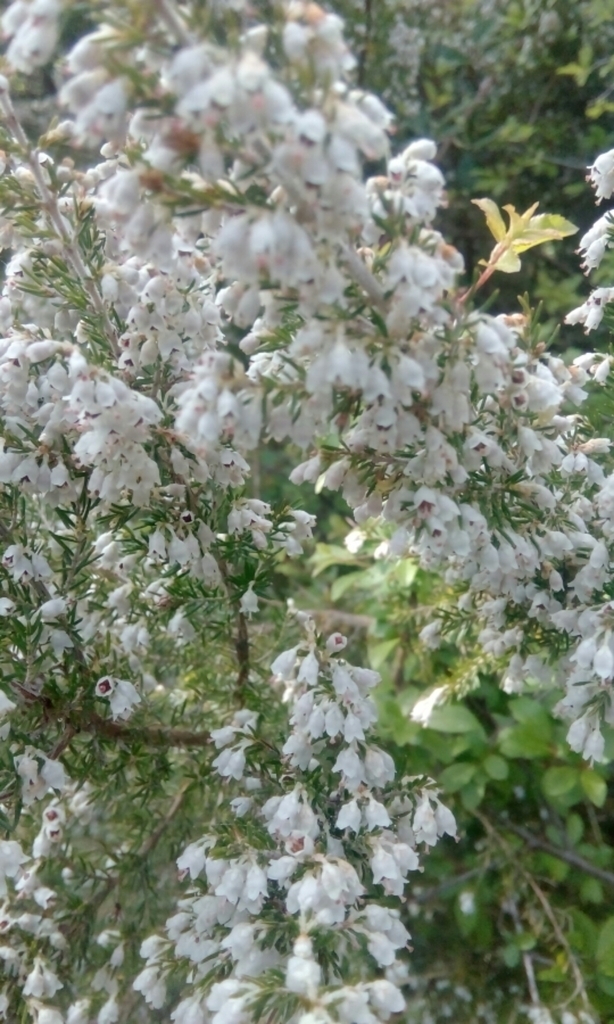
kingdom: Plantae
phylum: Tracheophyta
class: Magnoliopsida
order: Ericales
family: Ericaceae
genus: Erica
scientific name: Erica arborea
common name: Tree heath
